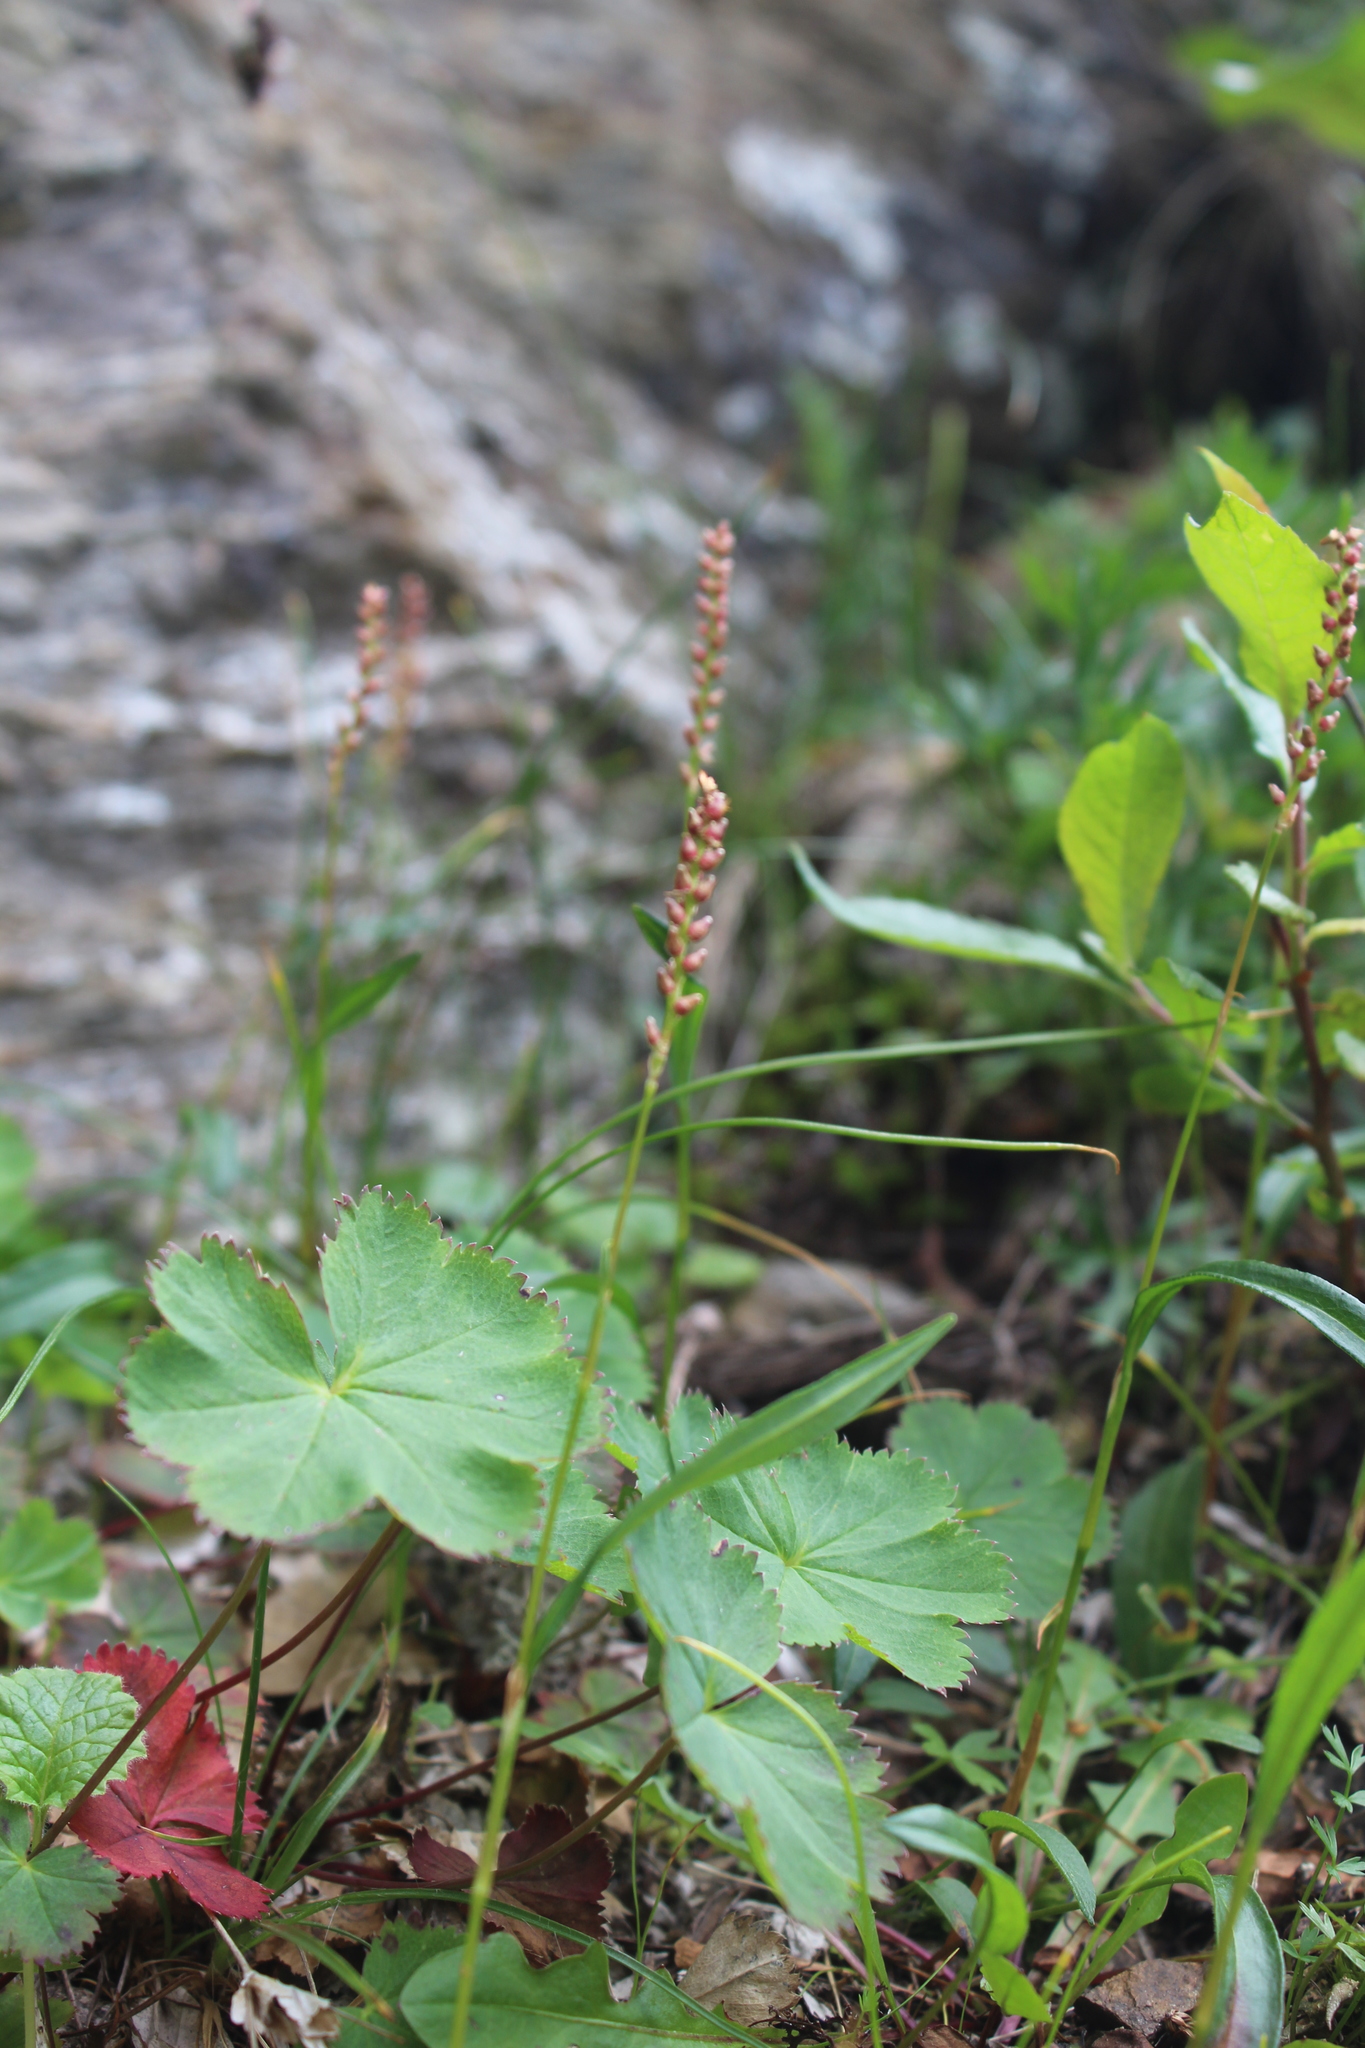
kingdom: Plantae
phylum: Tracheophyta
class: Magnoliopsida
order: Caryophyllales
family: Polygonaceae
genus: Bistorta
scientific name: Bistorta vivipara
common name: Alpine bistort
